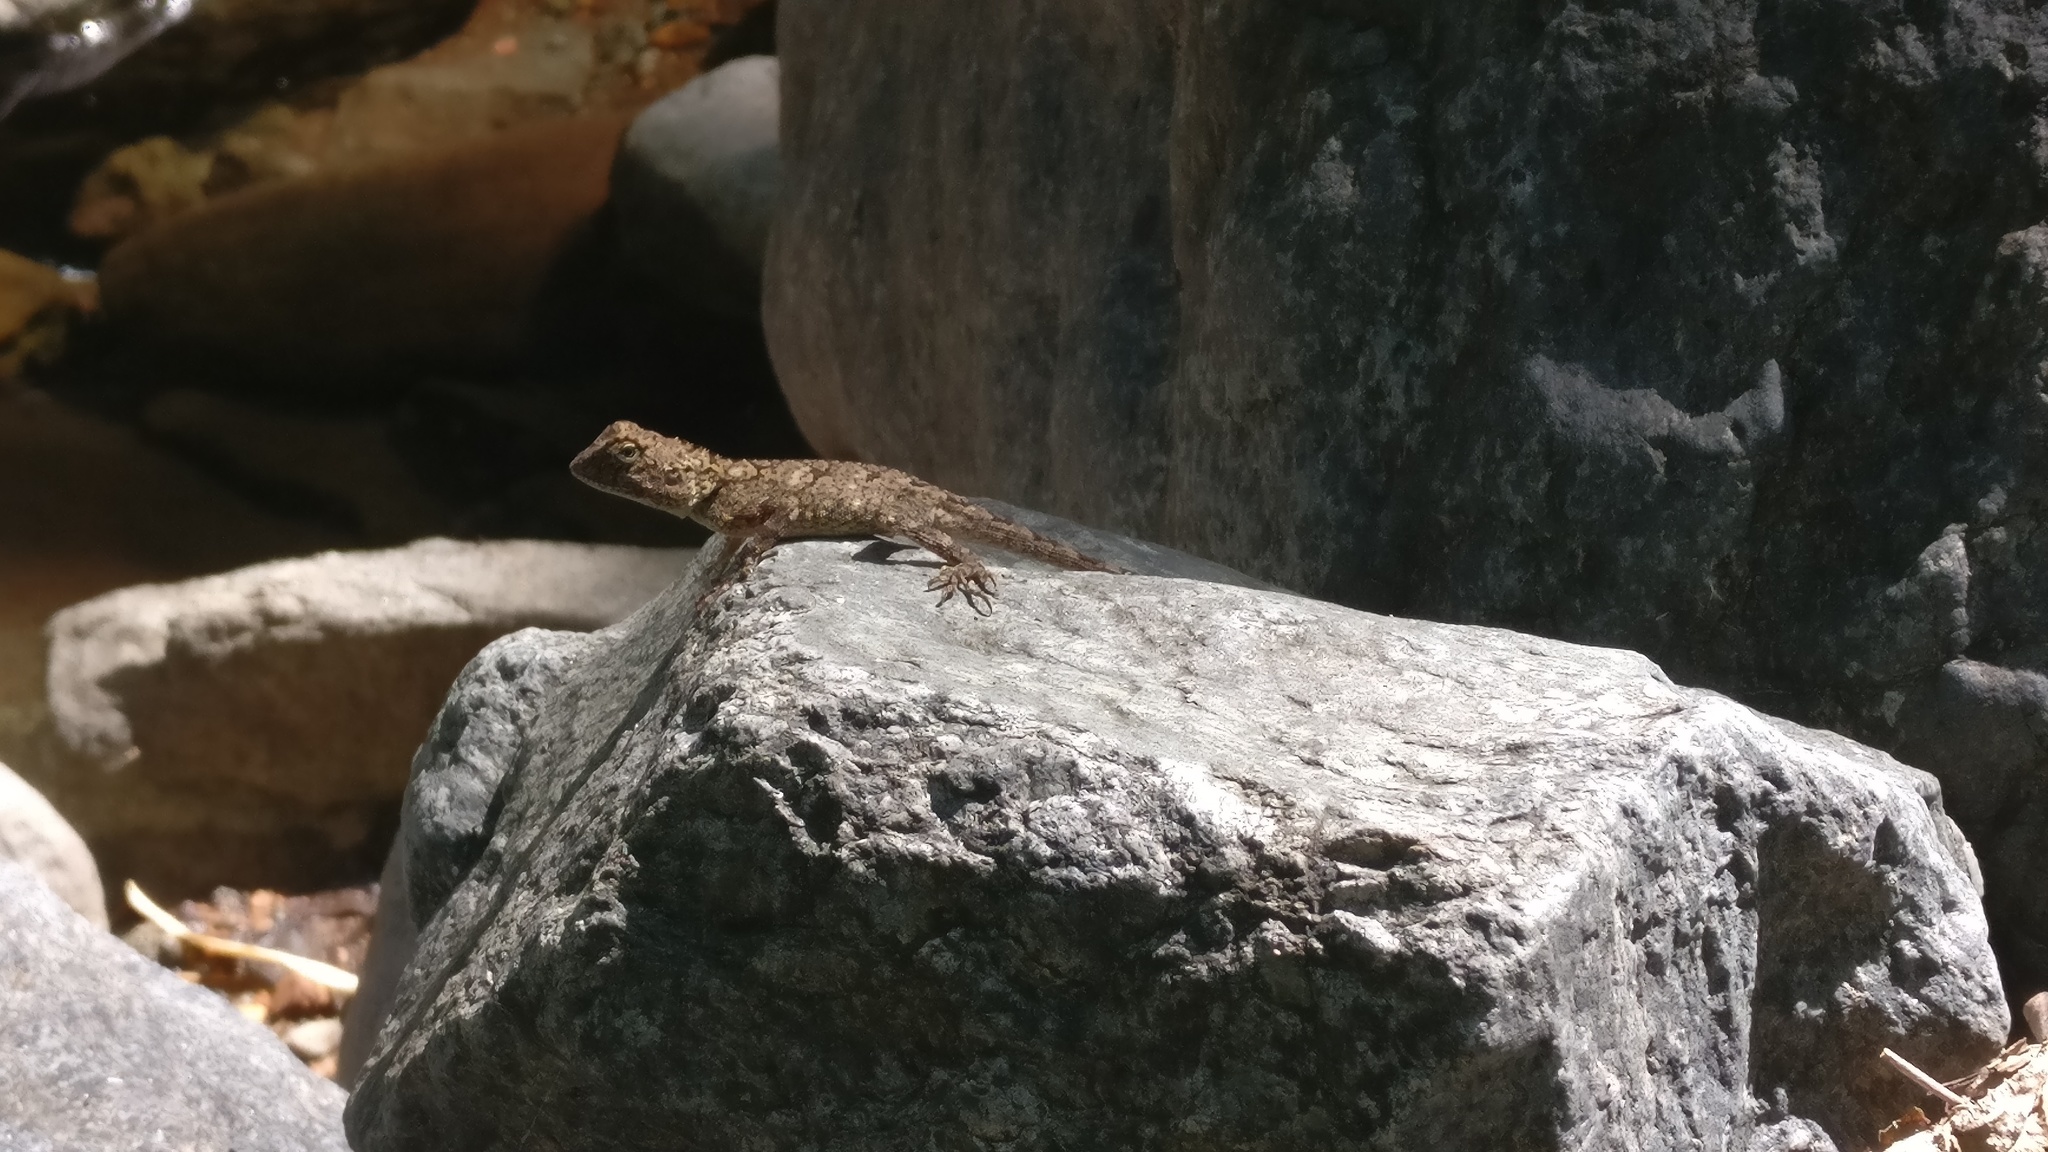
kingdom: Animalia
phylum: Chordata
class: Squamata
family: Agamidae
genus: Psammophilus
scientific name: Psammophilus dorsalis
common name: South indian rock agama
